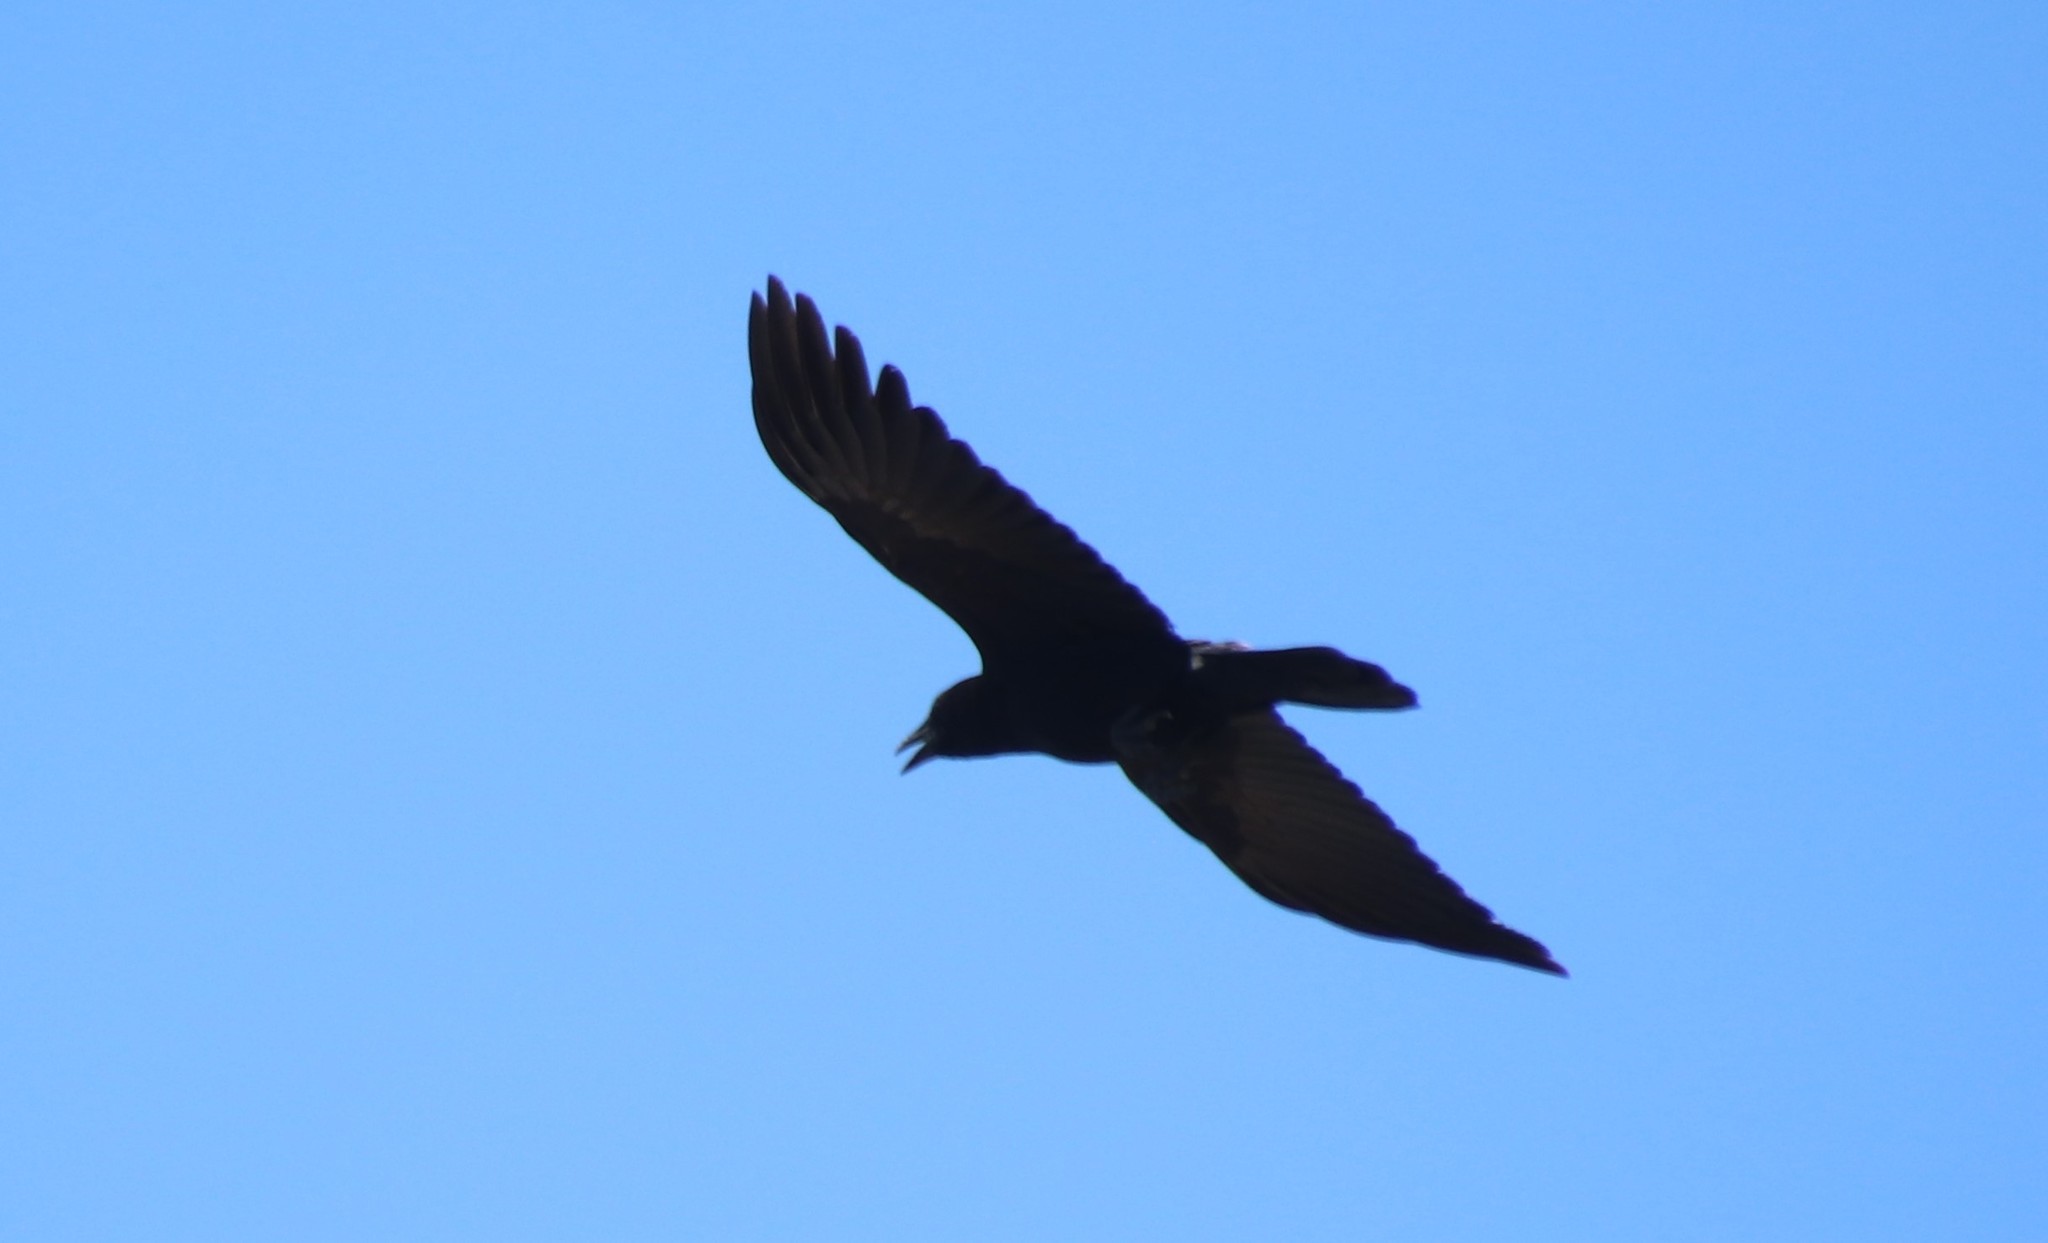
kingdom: Animalia
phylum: Chordata
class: Aves
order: Passeriformes
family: Corvidae
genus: Corvus
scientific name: Corvus brachyrhynchos
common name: American crow
